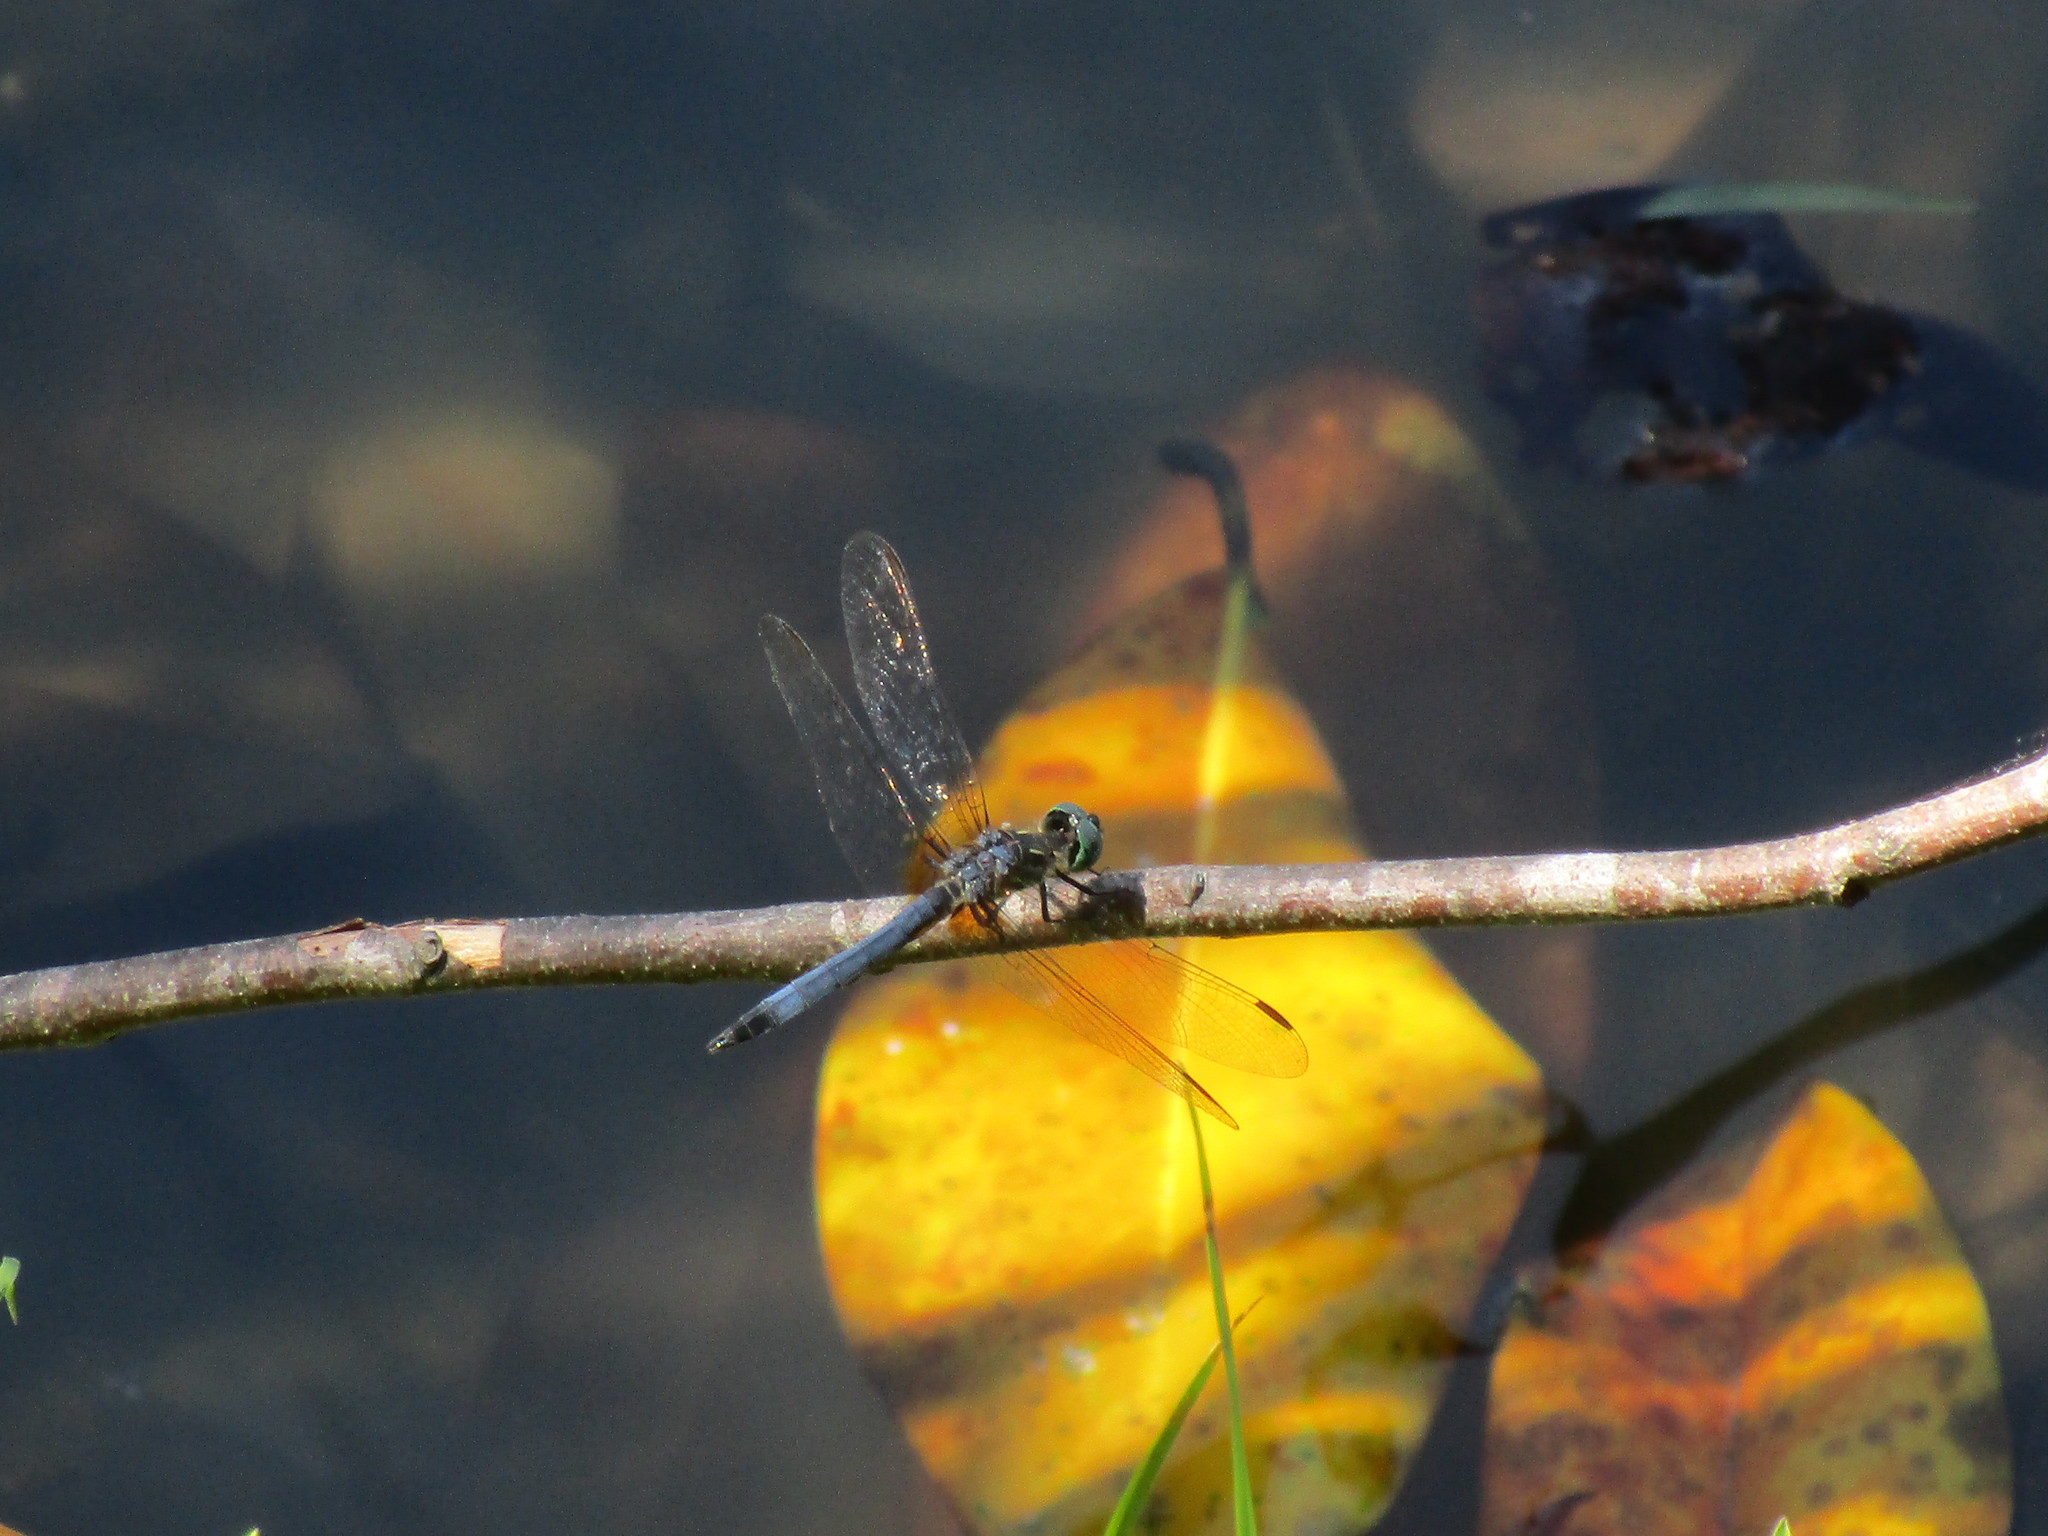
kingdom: Animalia
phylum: Arthropoda
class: Insecta
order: Odonata
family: Libellulidae
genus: Pachydiplax
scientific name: Pachydiplax longipennis
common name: Blue dasher
